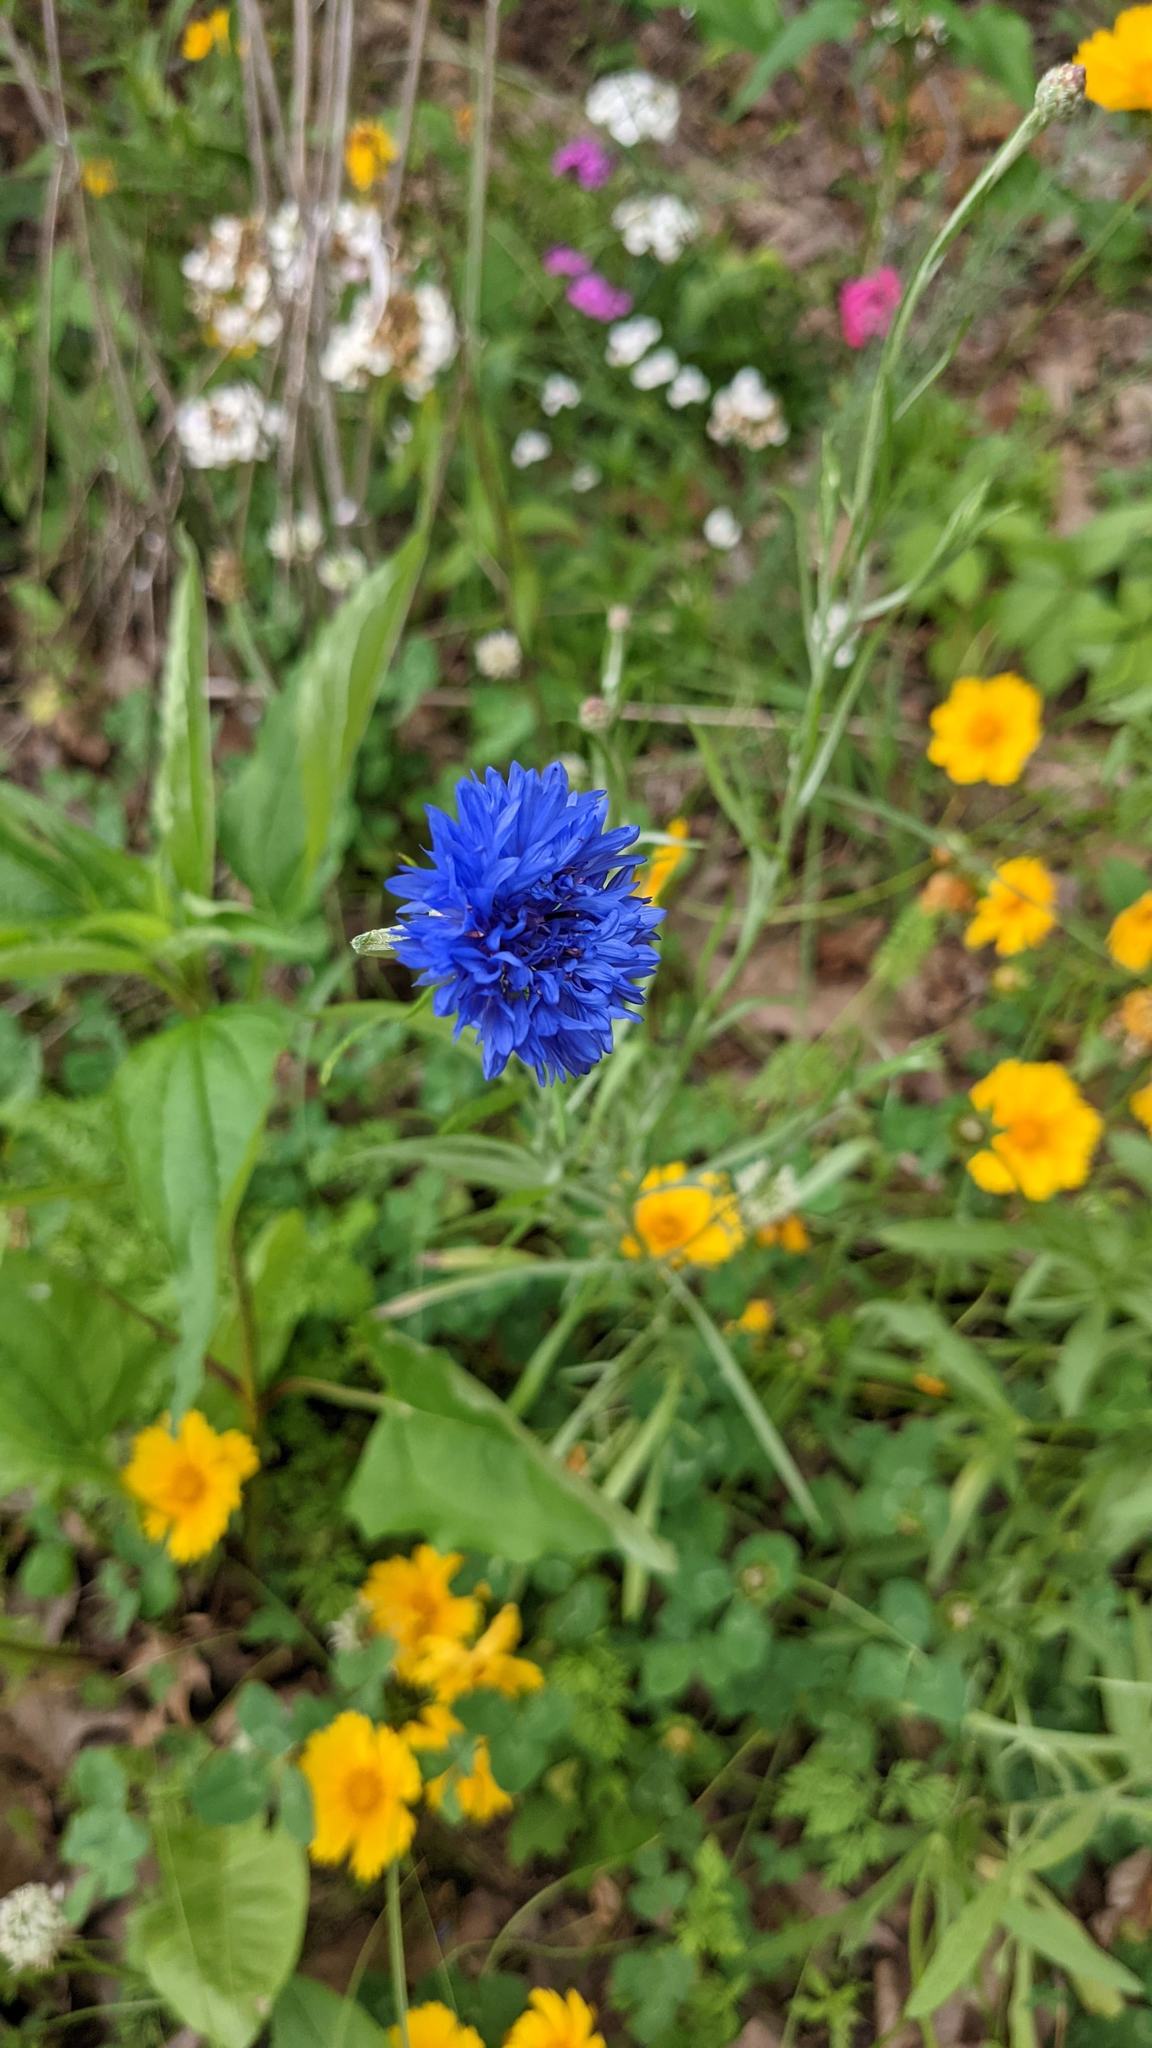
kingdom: Plantae
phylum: Tracheophyta
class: Magnoliopsida
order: Asterales
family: Asteraceae
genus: Centaurea
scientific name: Centaurea cyanus
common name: Cornflower
